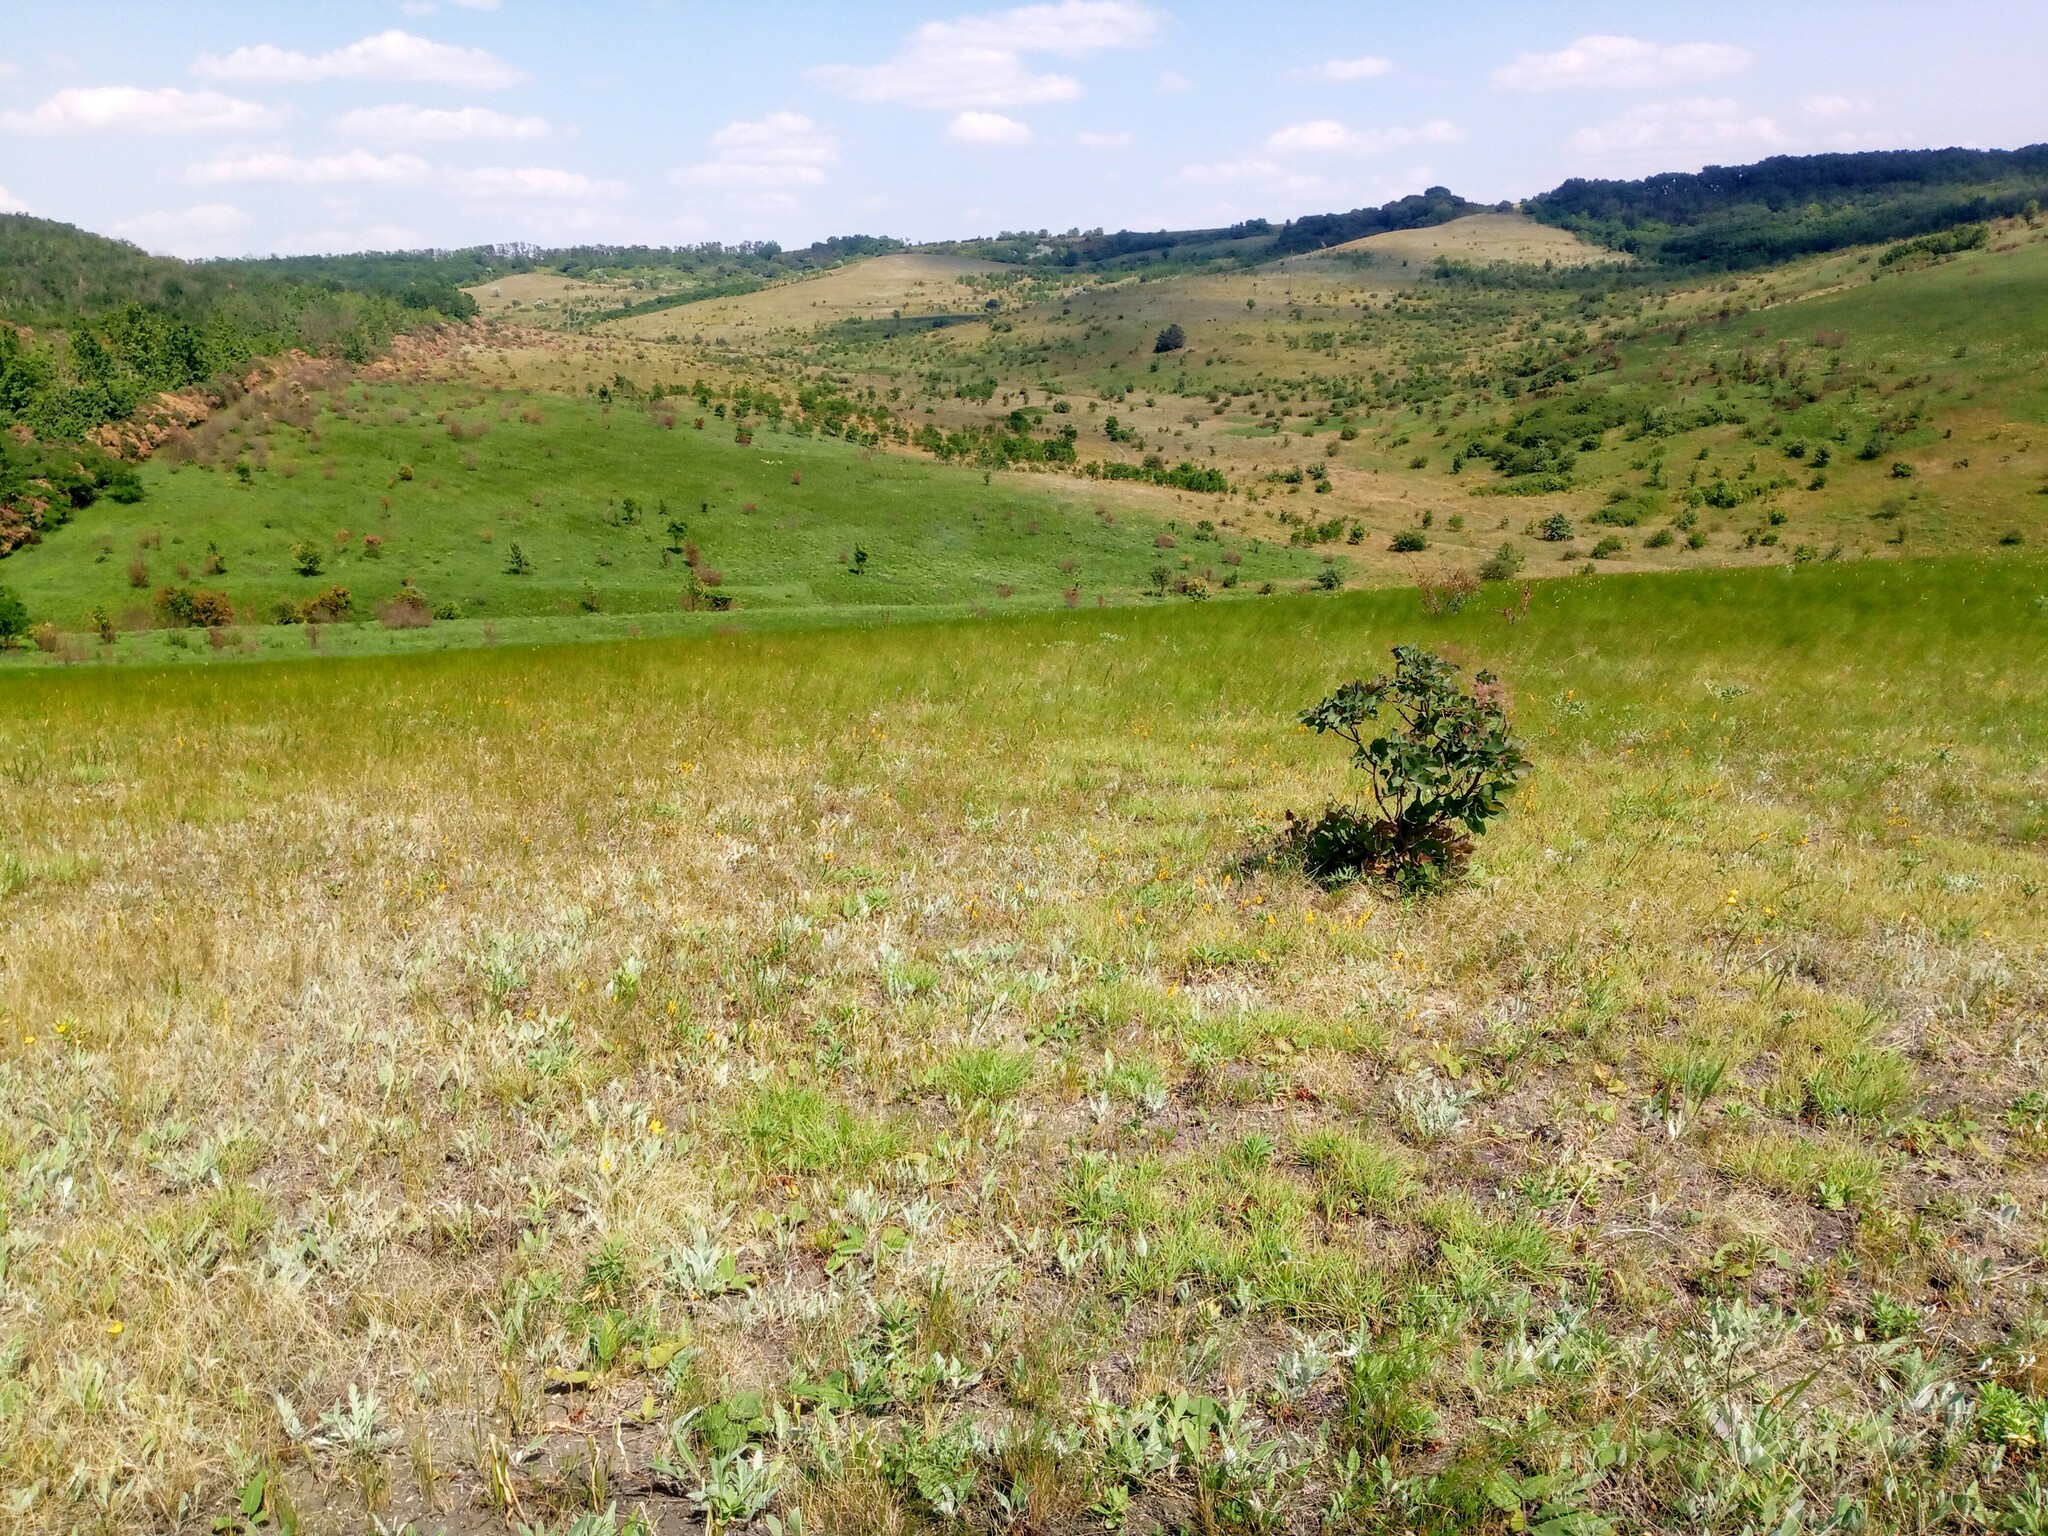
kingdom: Plantae
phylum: Tracheophyta
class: Magnoliopsida
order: Sapindales
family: Anacardiaceae
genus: Cotinus
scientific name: Cotinus coggygria
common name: Smoke-tree
